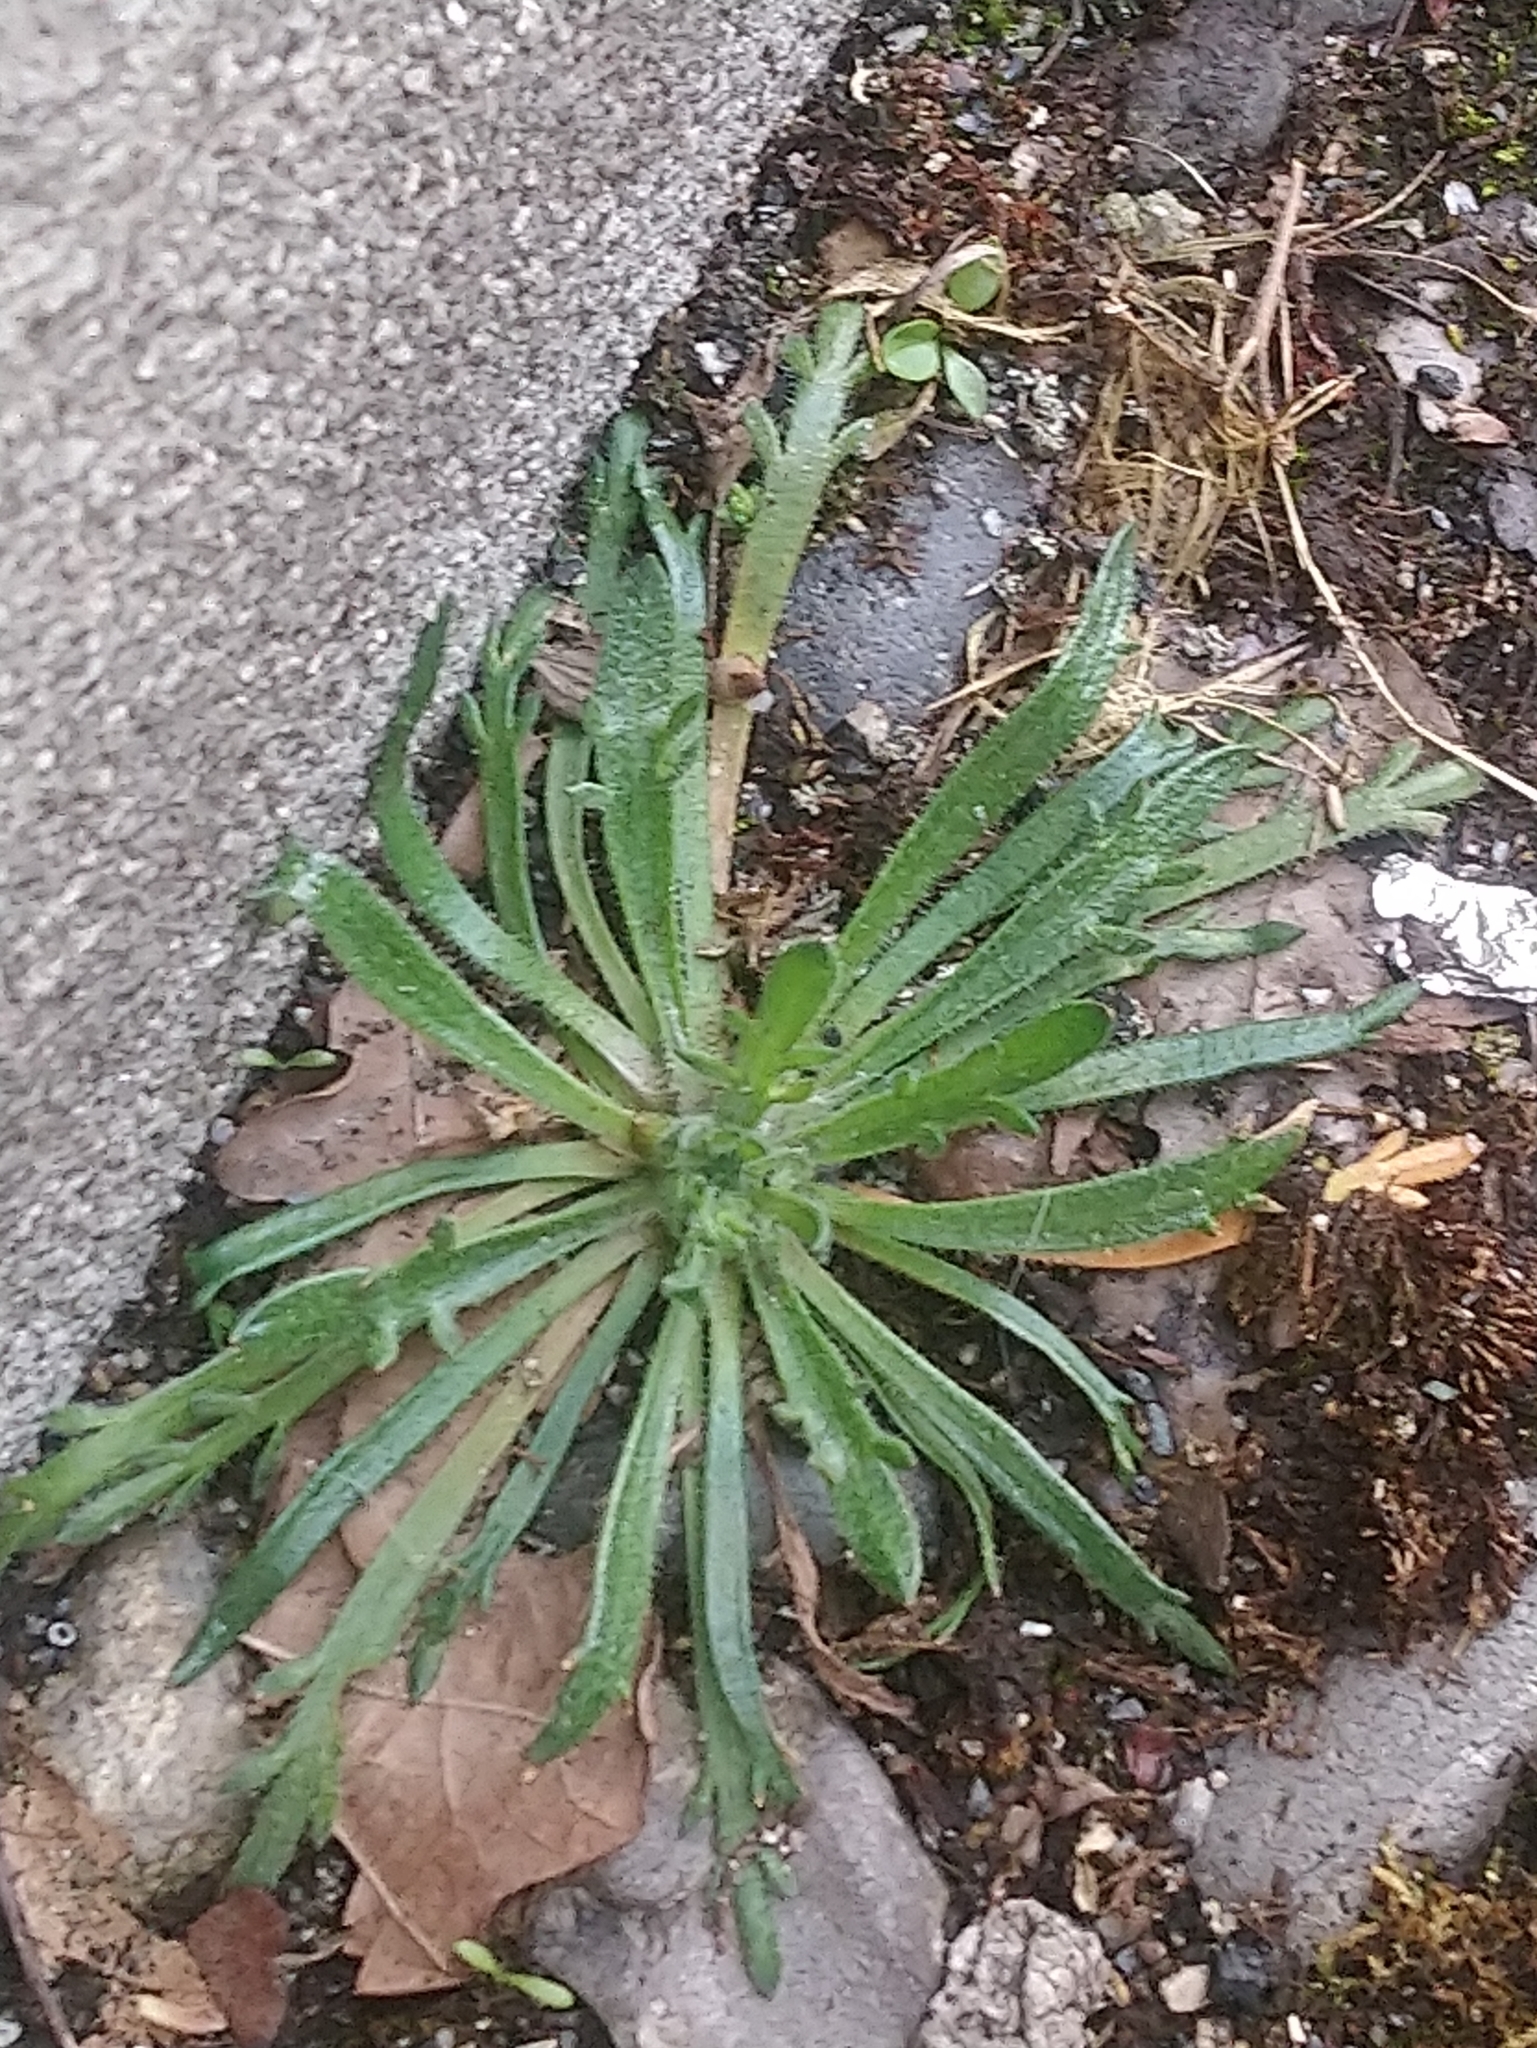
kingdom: Plantae
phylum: Tracheophyta
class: Magnoliopsida
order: Lamiales
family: Plantaginaceae
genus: Plantago
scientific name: Plantago coronopus
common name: Buck's-horn plantain
